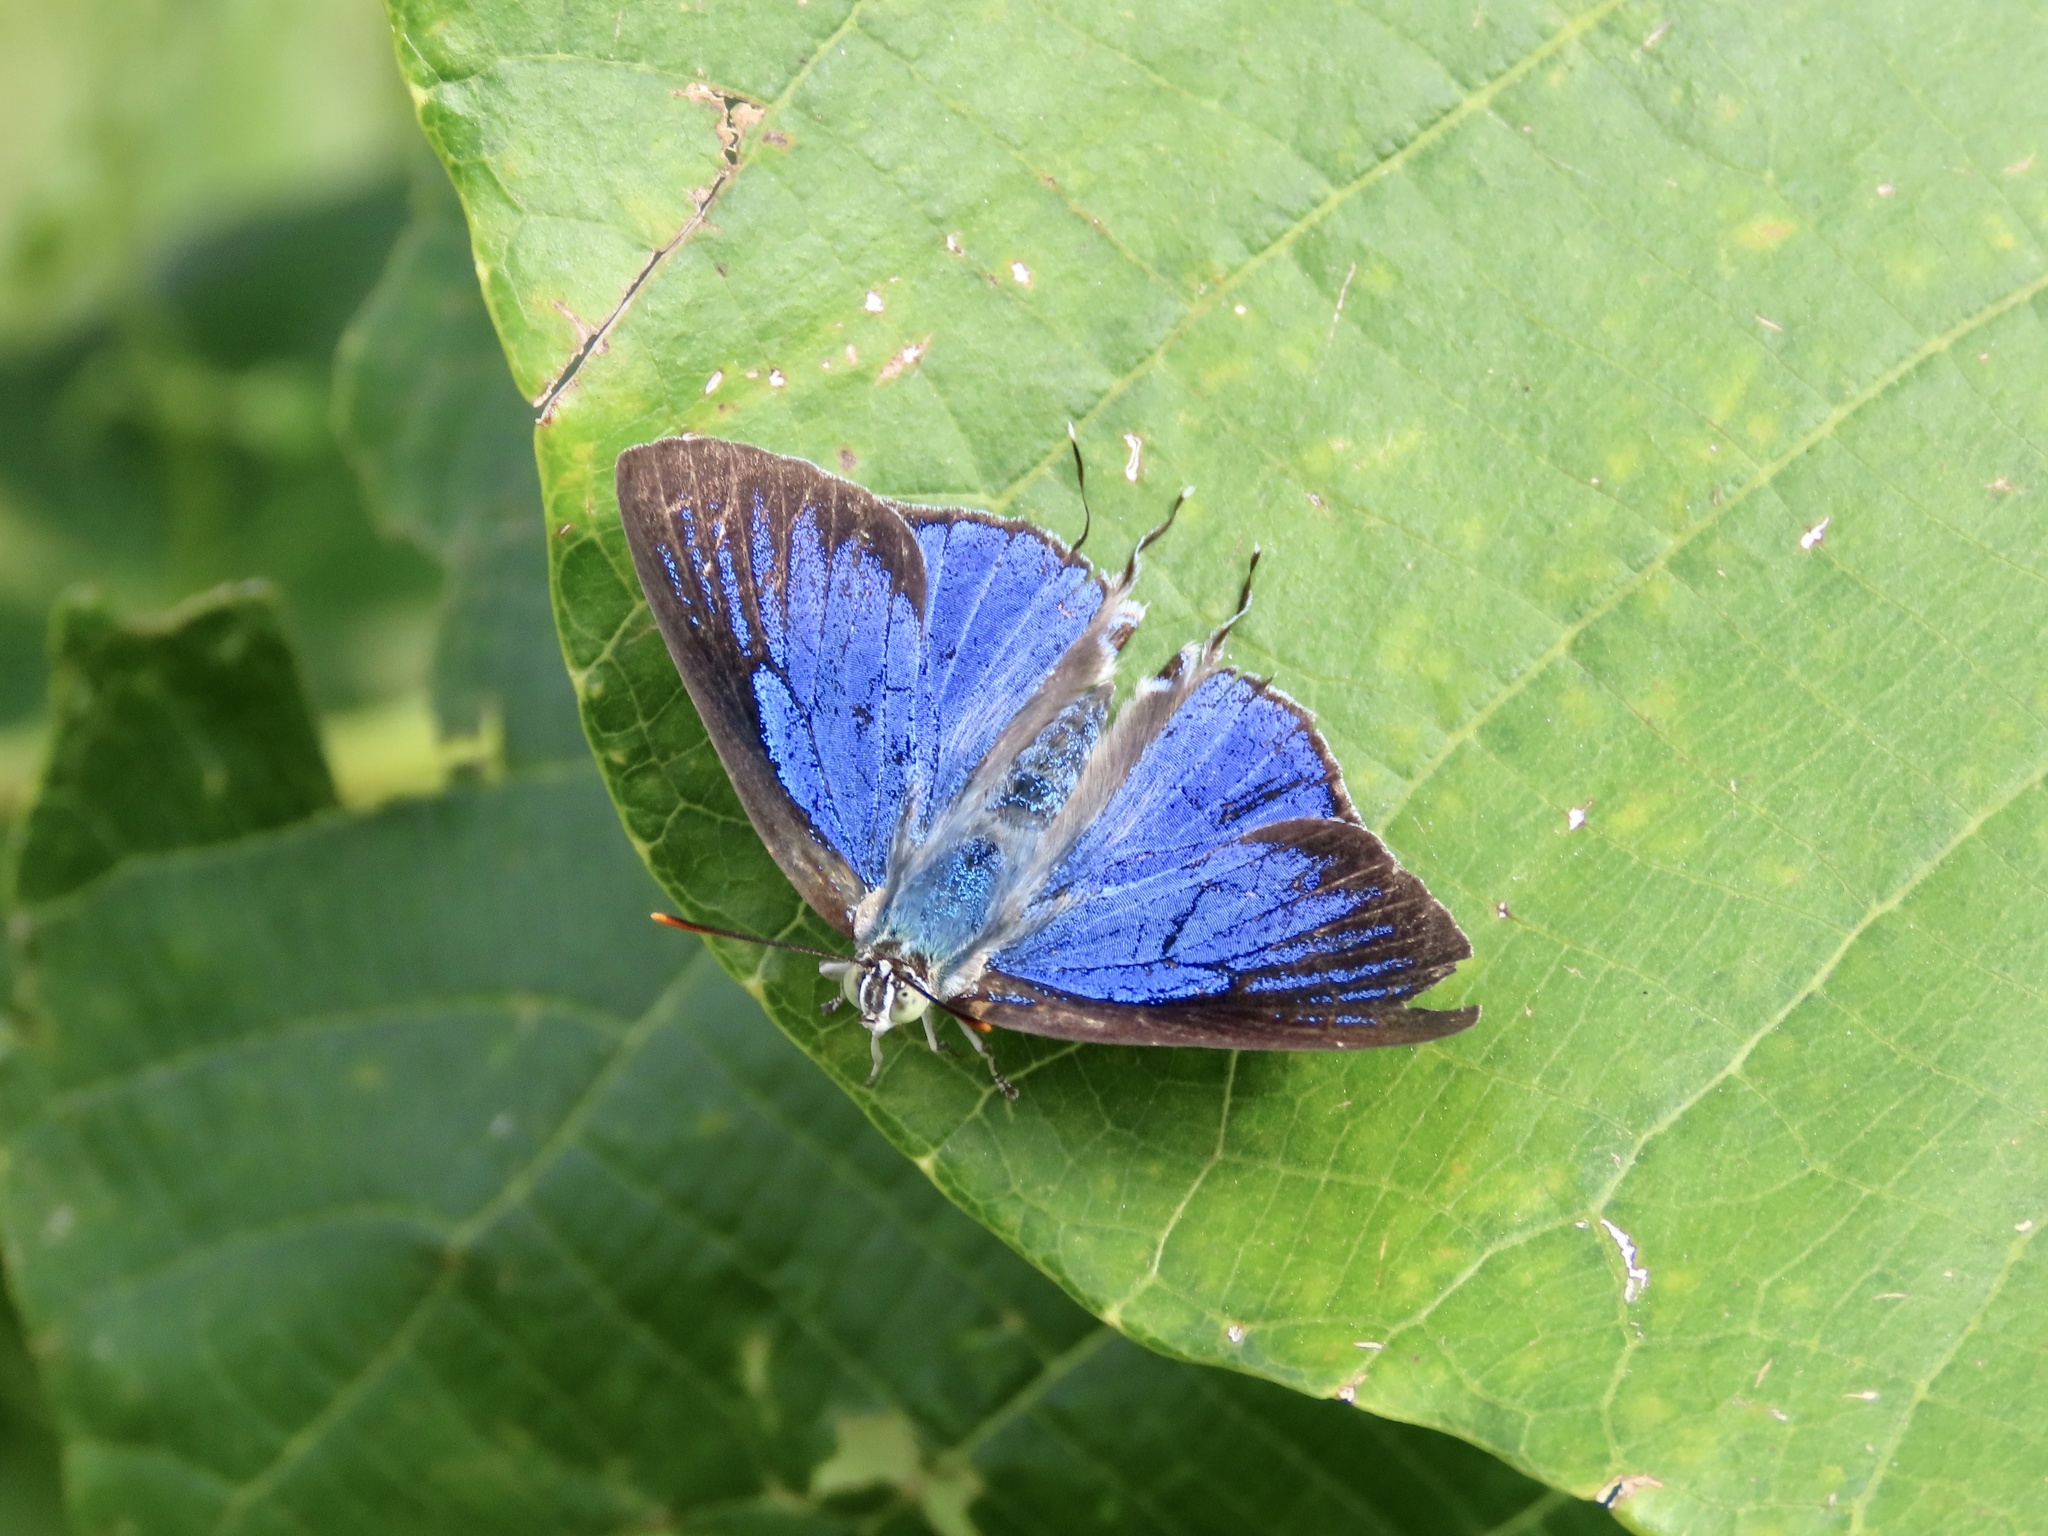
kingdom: Animalia
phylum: Arthropoda
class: Insecta
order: Lepidoptera
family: Lycaenidae
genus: Ancema
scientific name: Ancema blanka
